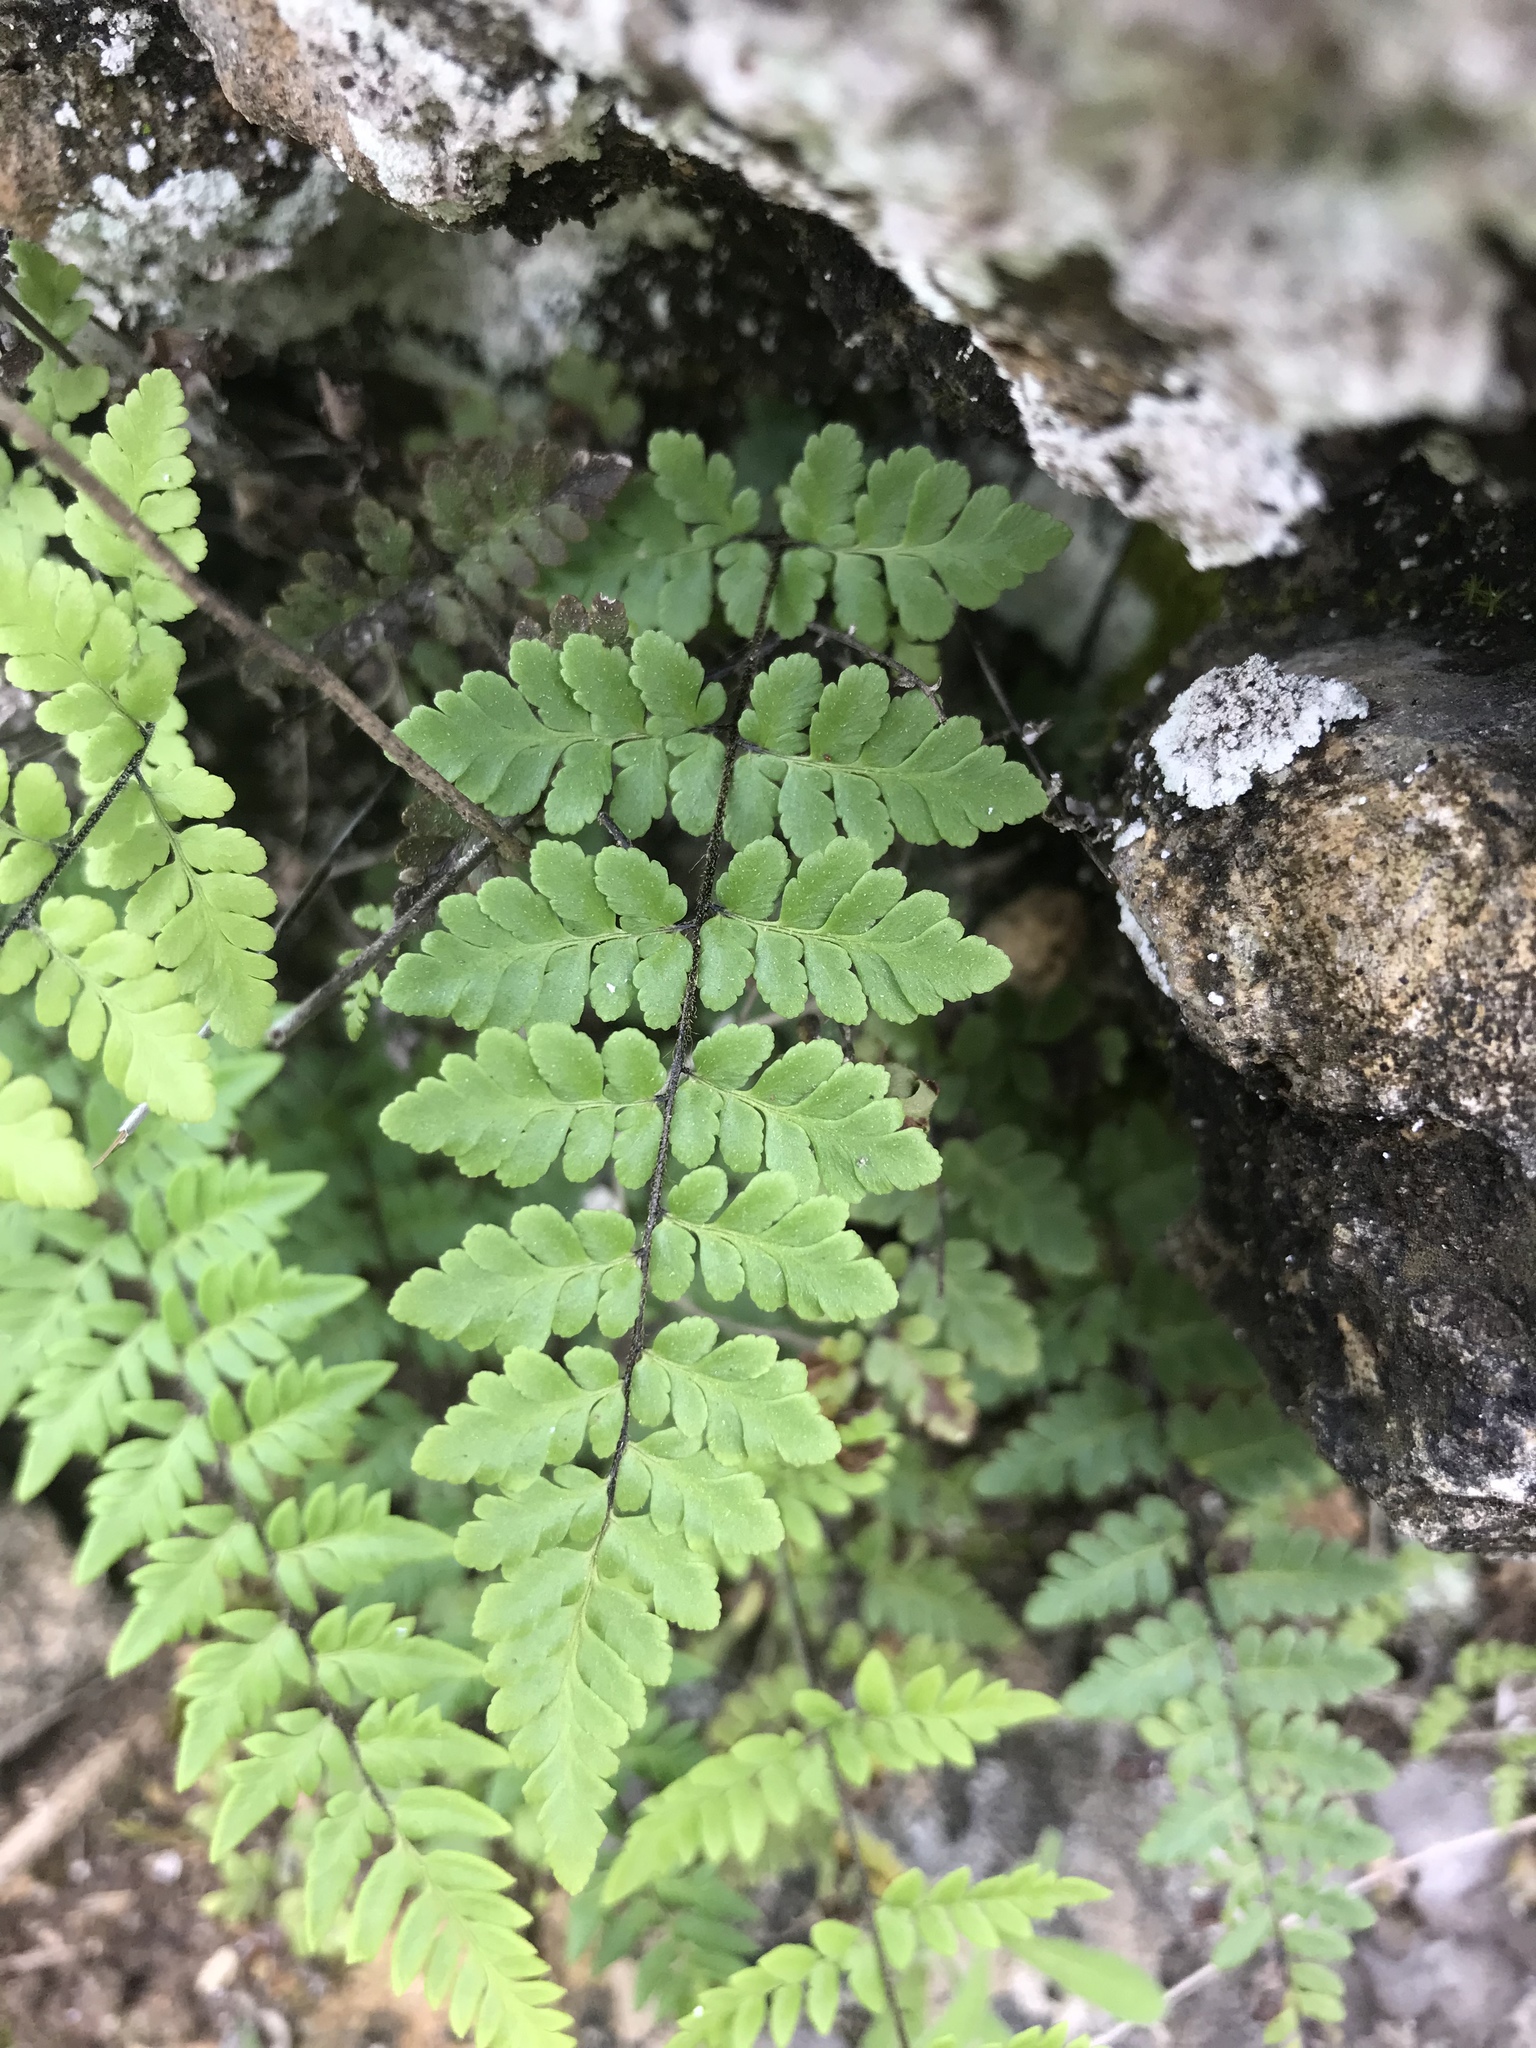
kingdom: Plantae
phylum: Tracheophyta
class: Polypodiopsida
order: Polypodiales
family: Pteridaceae
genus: Myriopteris
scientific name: Myriopteris alabamensis
